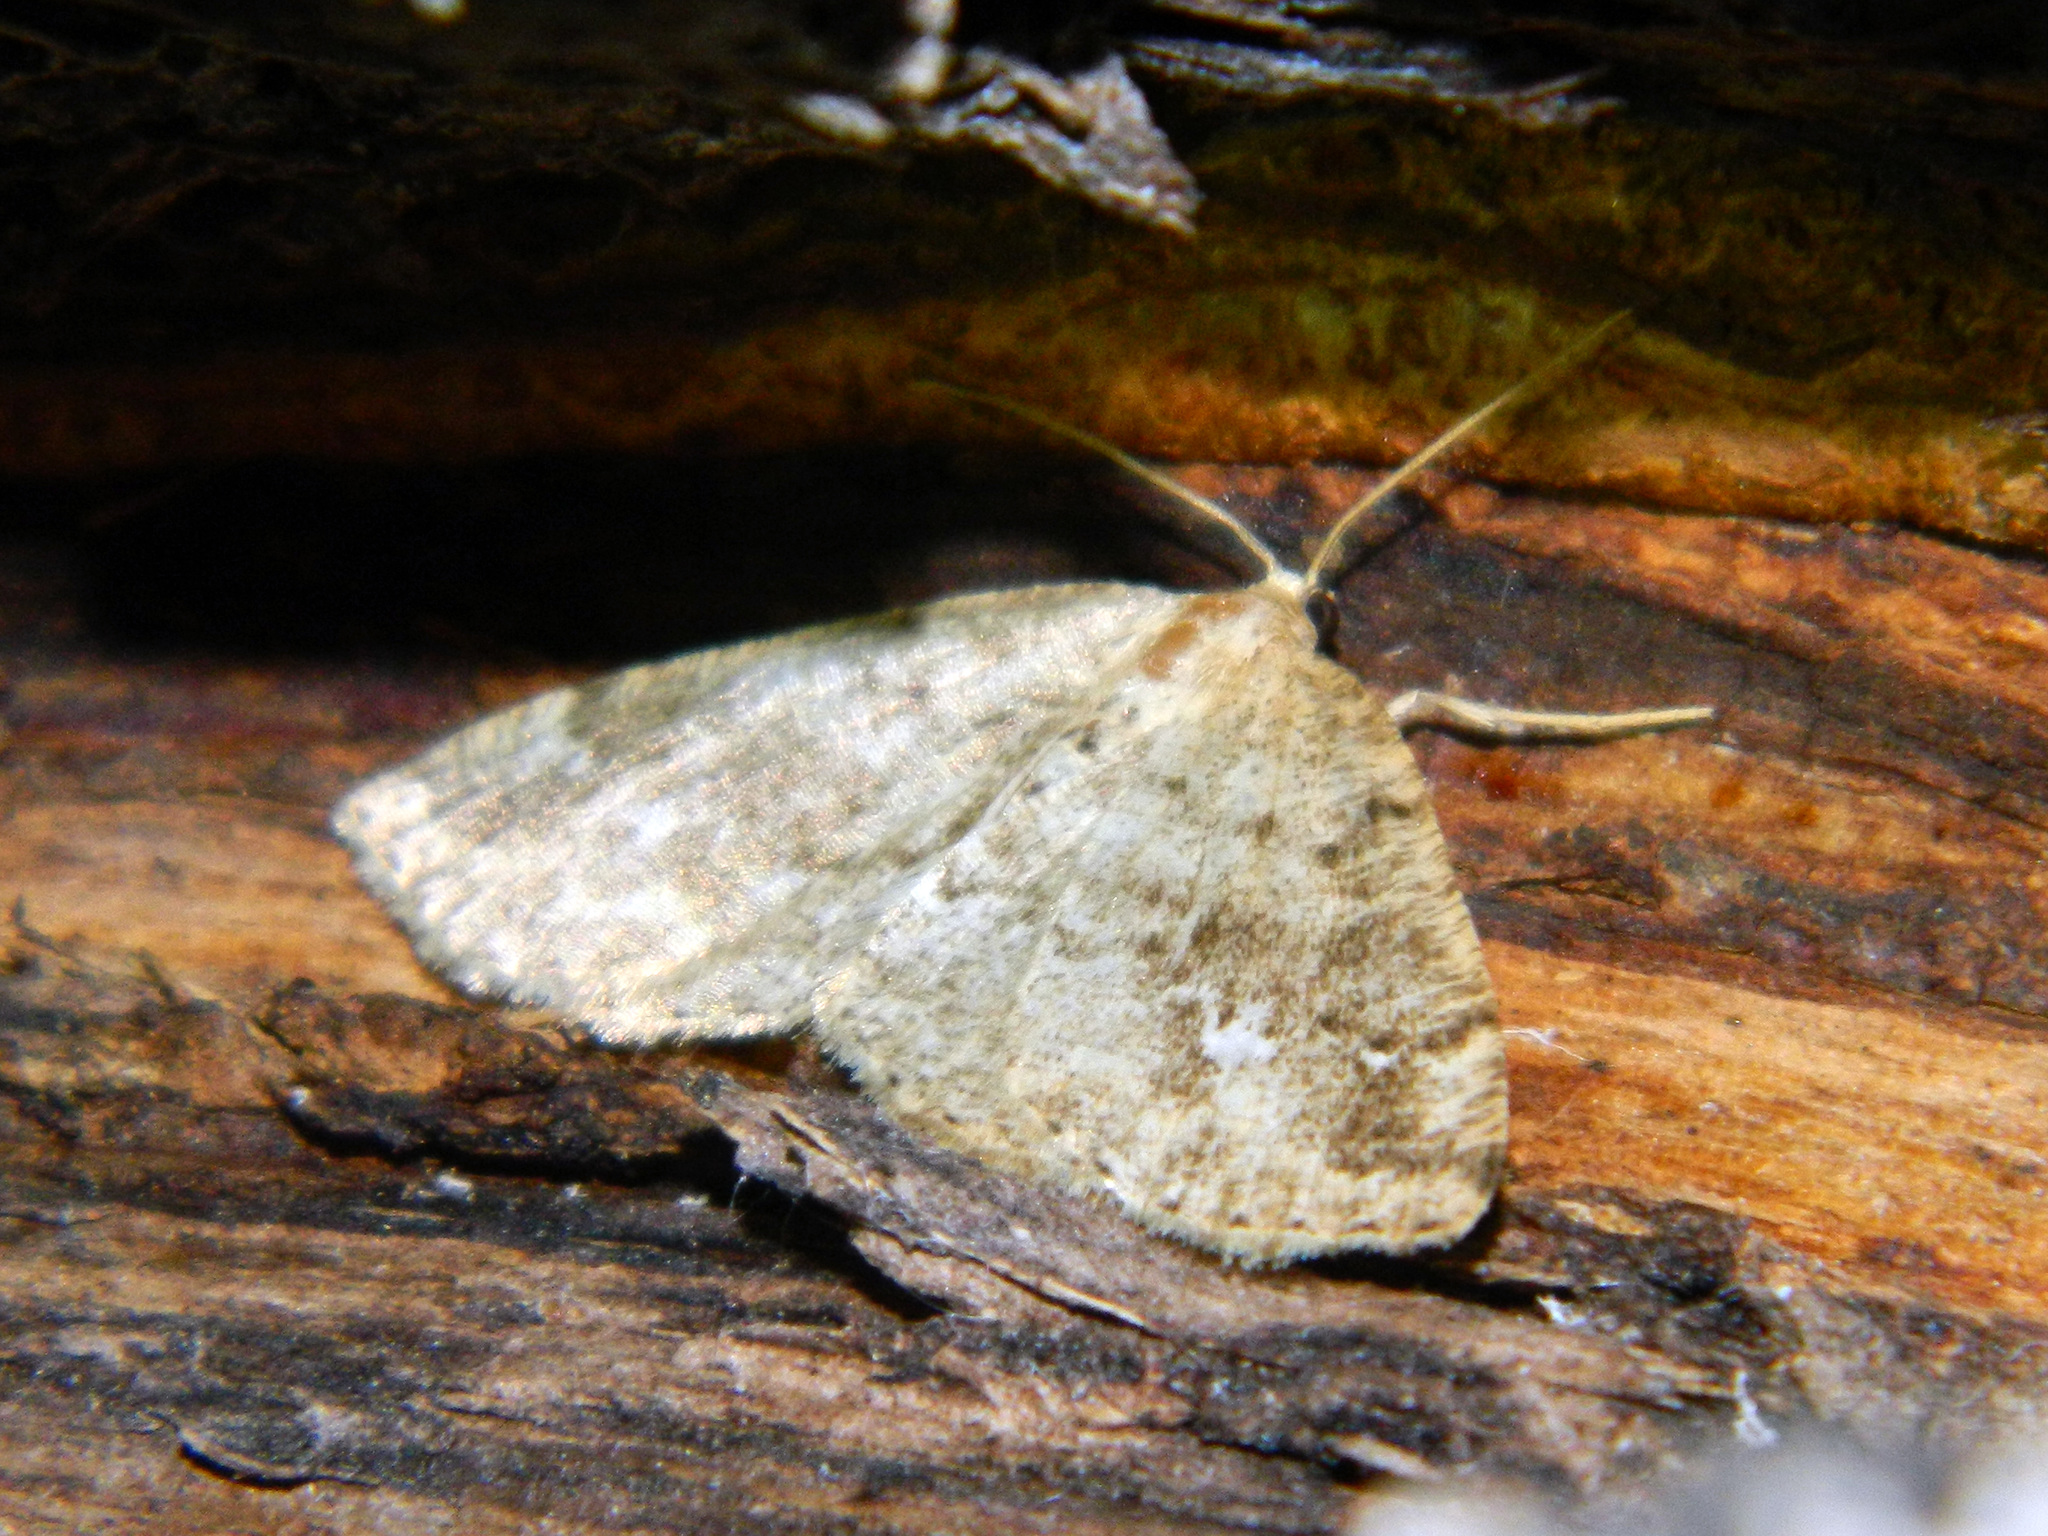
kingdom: Animalia
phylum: Arthropoda
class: Insecta
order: Lepidoptera
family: Geometridae
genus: Homochlodes
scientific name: Homochlodes fritillaria
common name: Pale homochlodes
